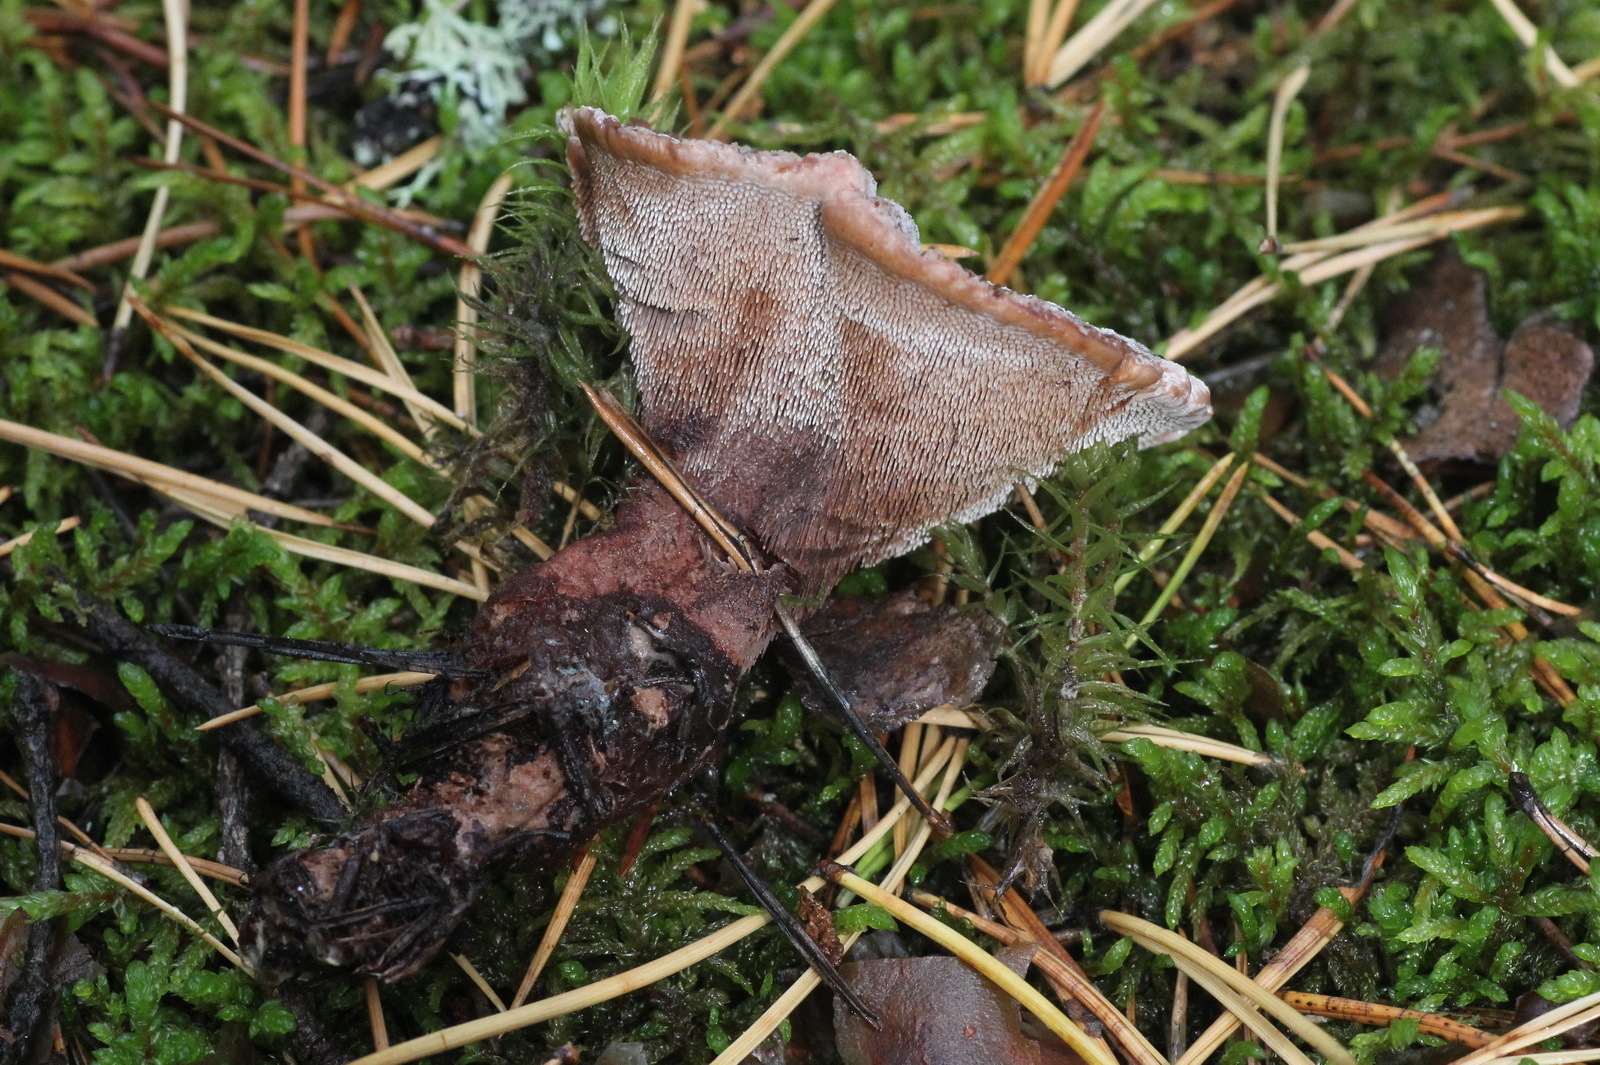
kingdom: Fungi
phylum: Basidiomycota
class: Agaricomycetes
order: Thelephorales
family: Bankeraceae
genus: Hydnellum
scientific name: Hydnellum ferrugineum
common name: Mealy tooth
